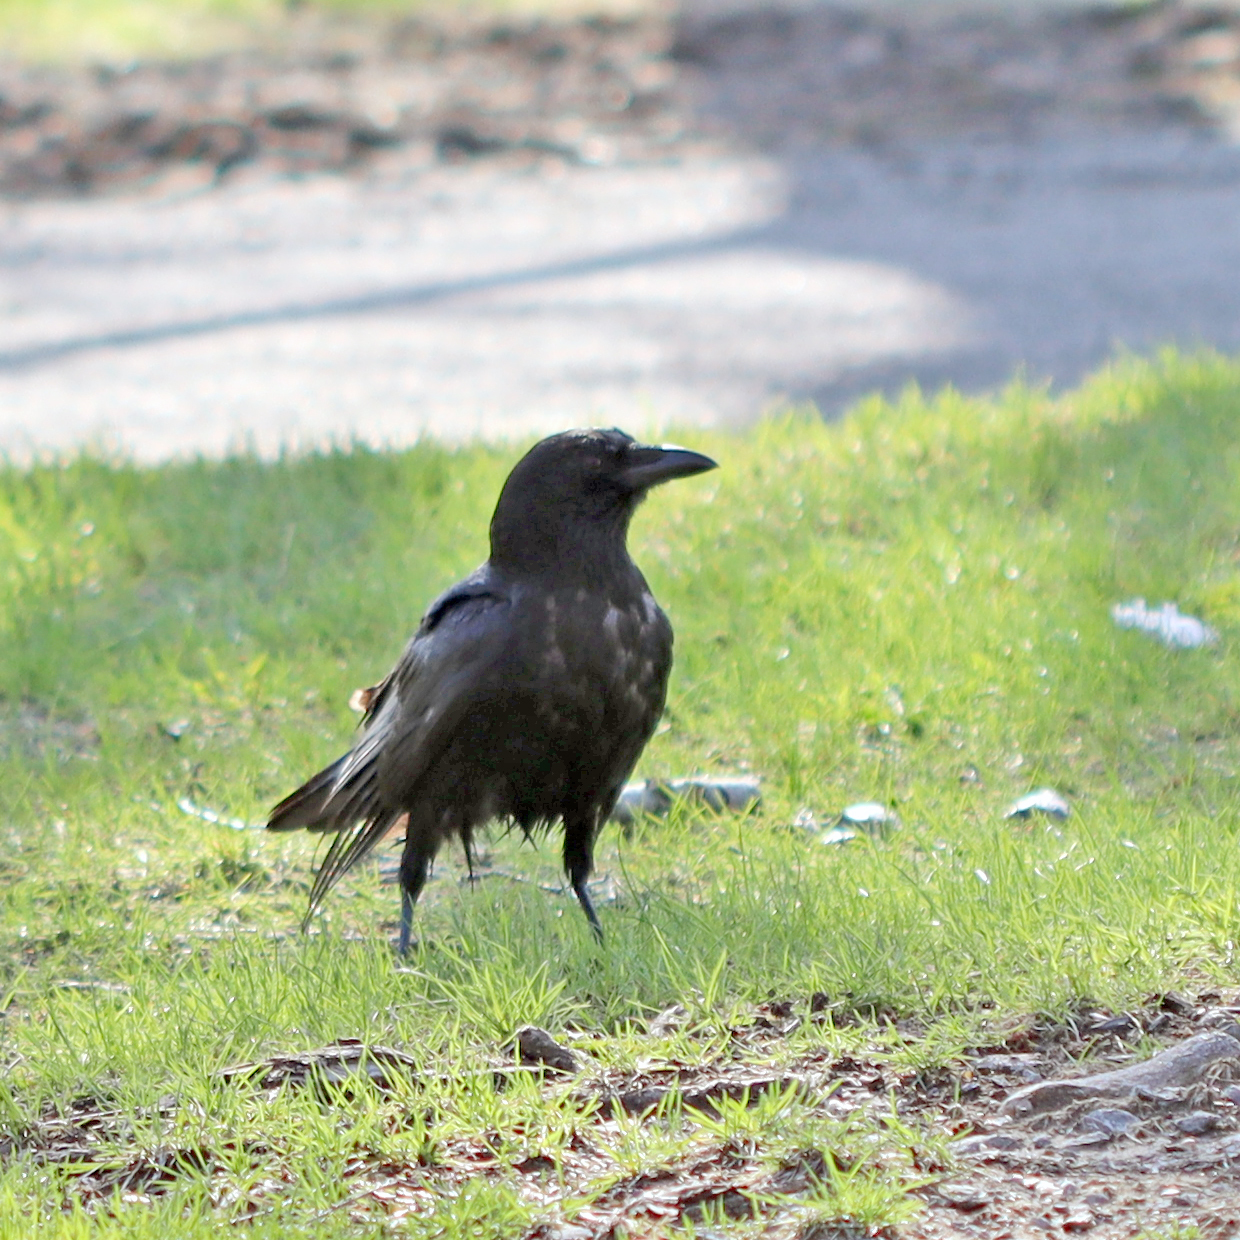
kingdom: Animalia
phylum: Chordata
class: Aves
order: Passeriformes
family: Corvidae
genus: Corvus
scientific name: Corvus brachyrhynchos
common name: American crow
